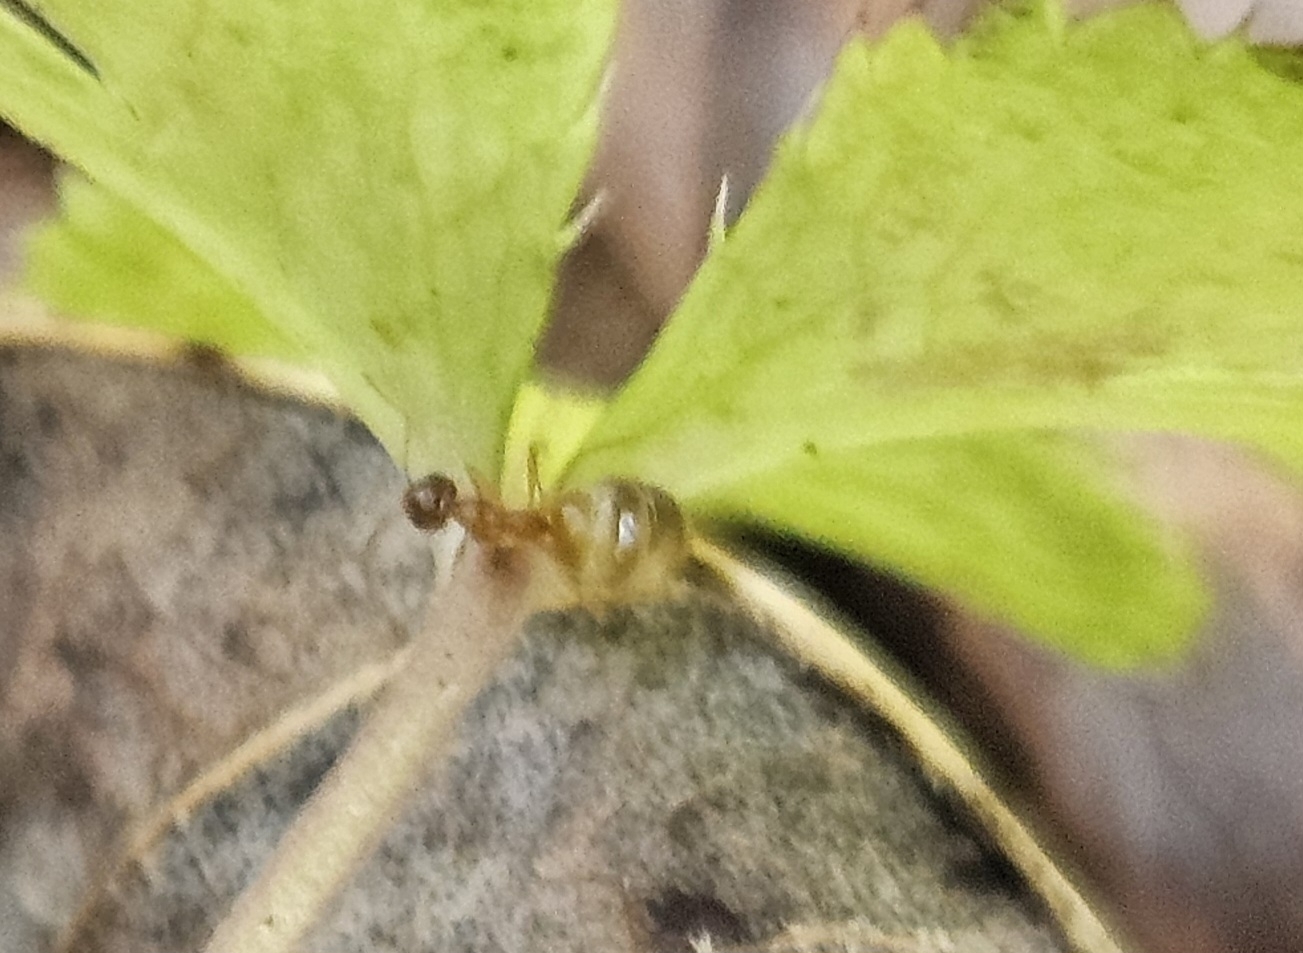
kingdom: Animalia
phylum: Arthropoda
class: Insecta
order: Hymenoptera
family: Formicidae
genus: Prenolepis
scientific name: Prenolepis imparis
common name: Small honey ant
